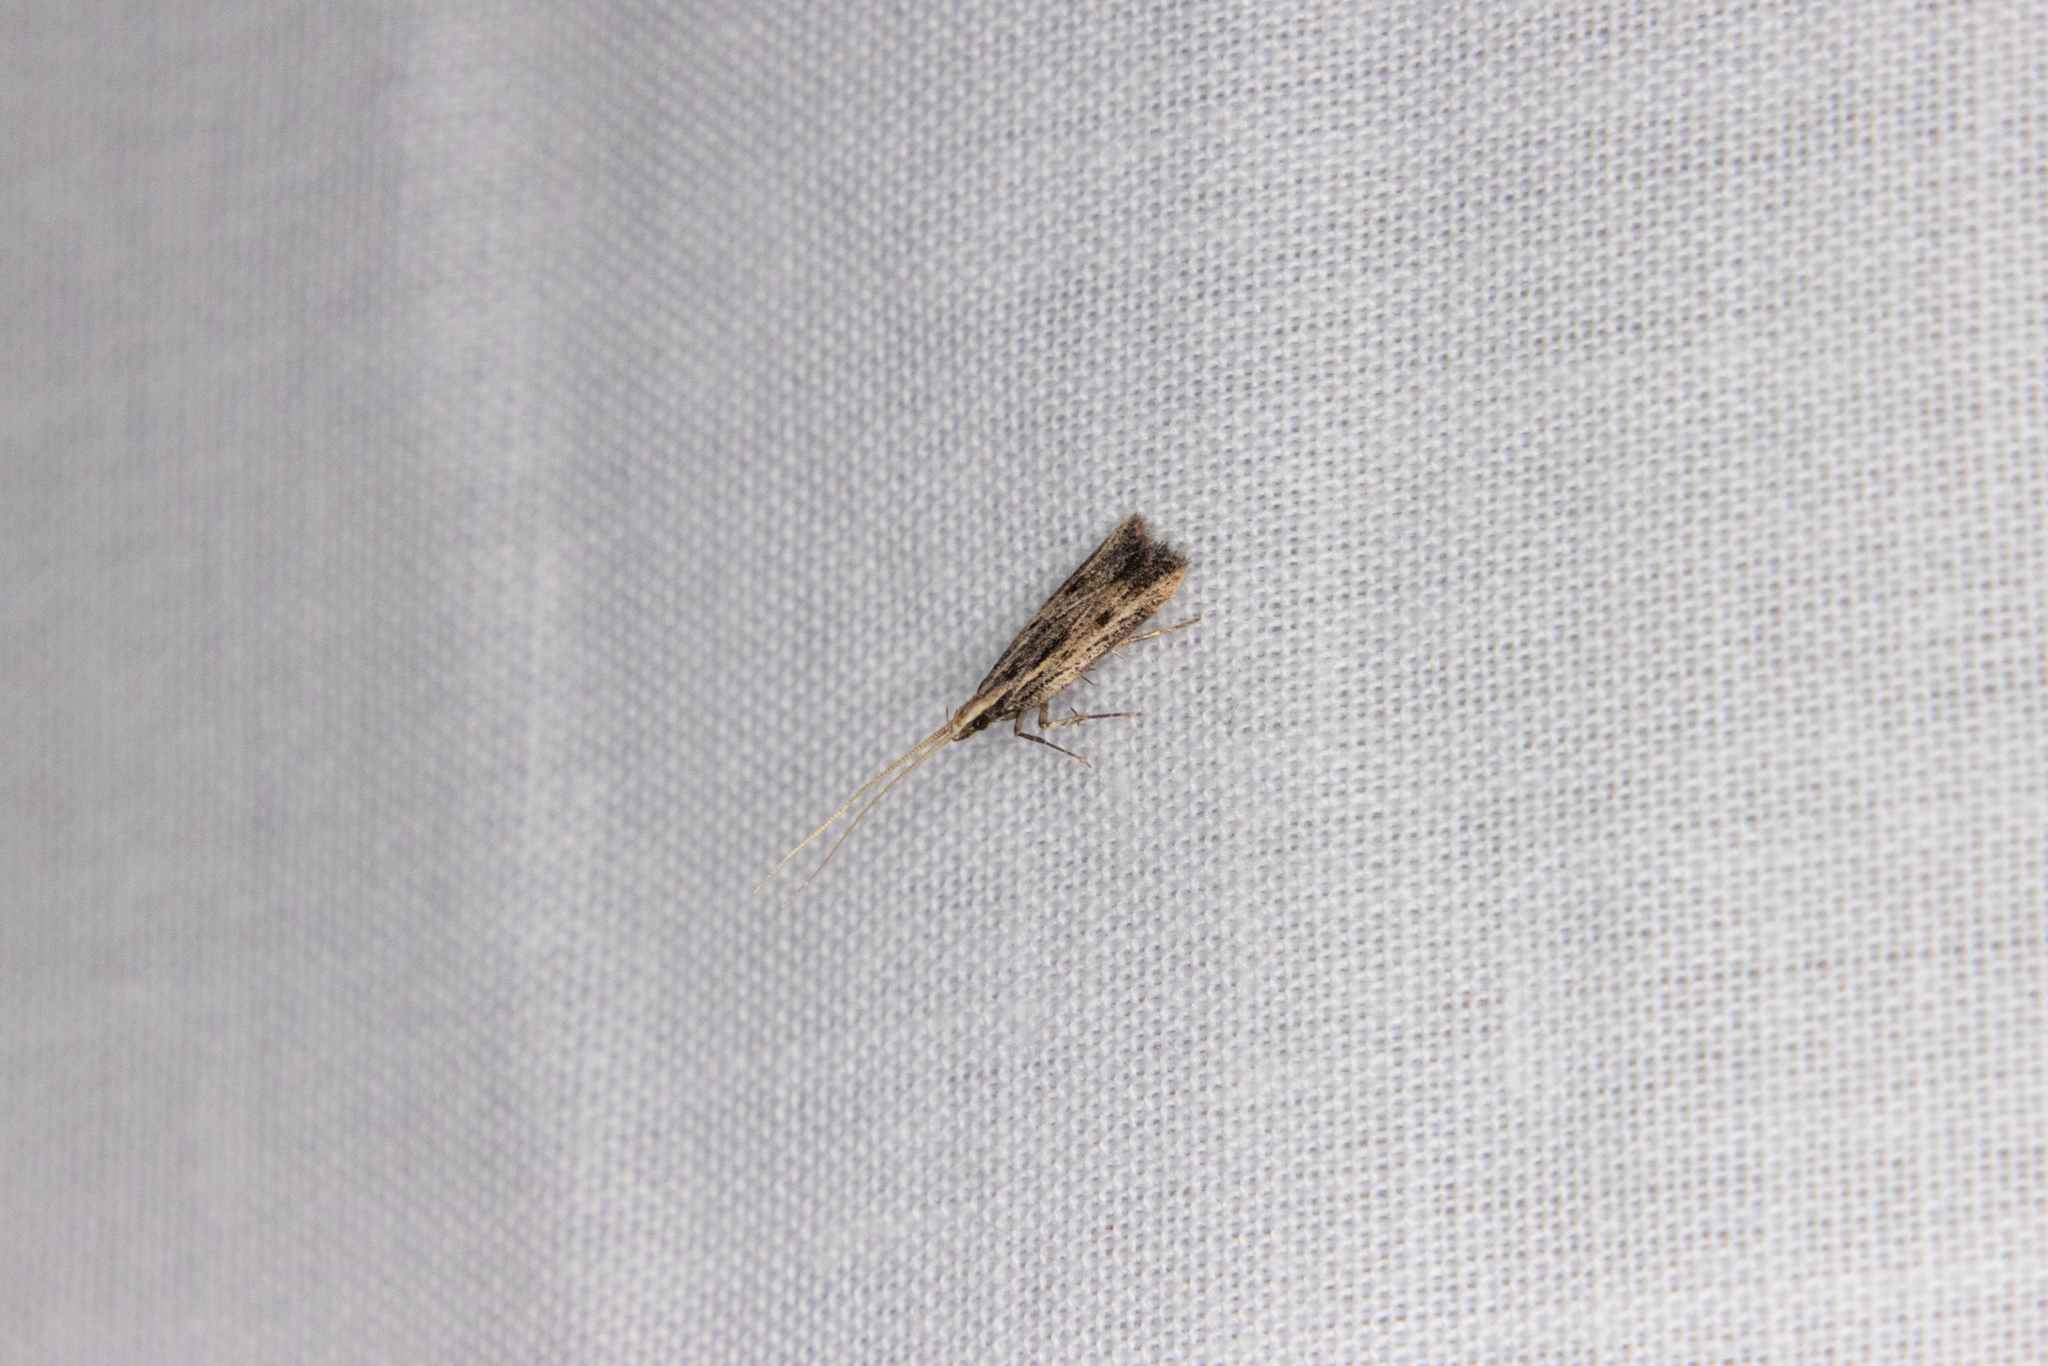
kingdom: Animalia
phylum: Arthropoda
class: Insecta
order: Lepidoptera
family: Lecithoceridae
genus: Sarisophora
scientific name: Sarisophora leucoscia
